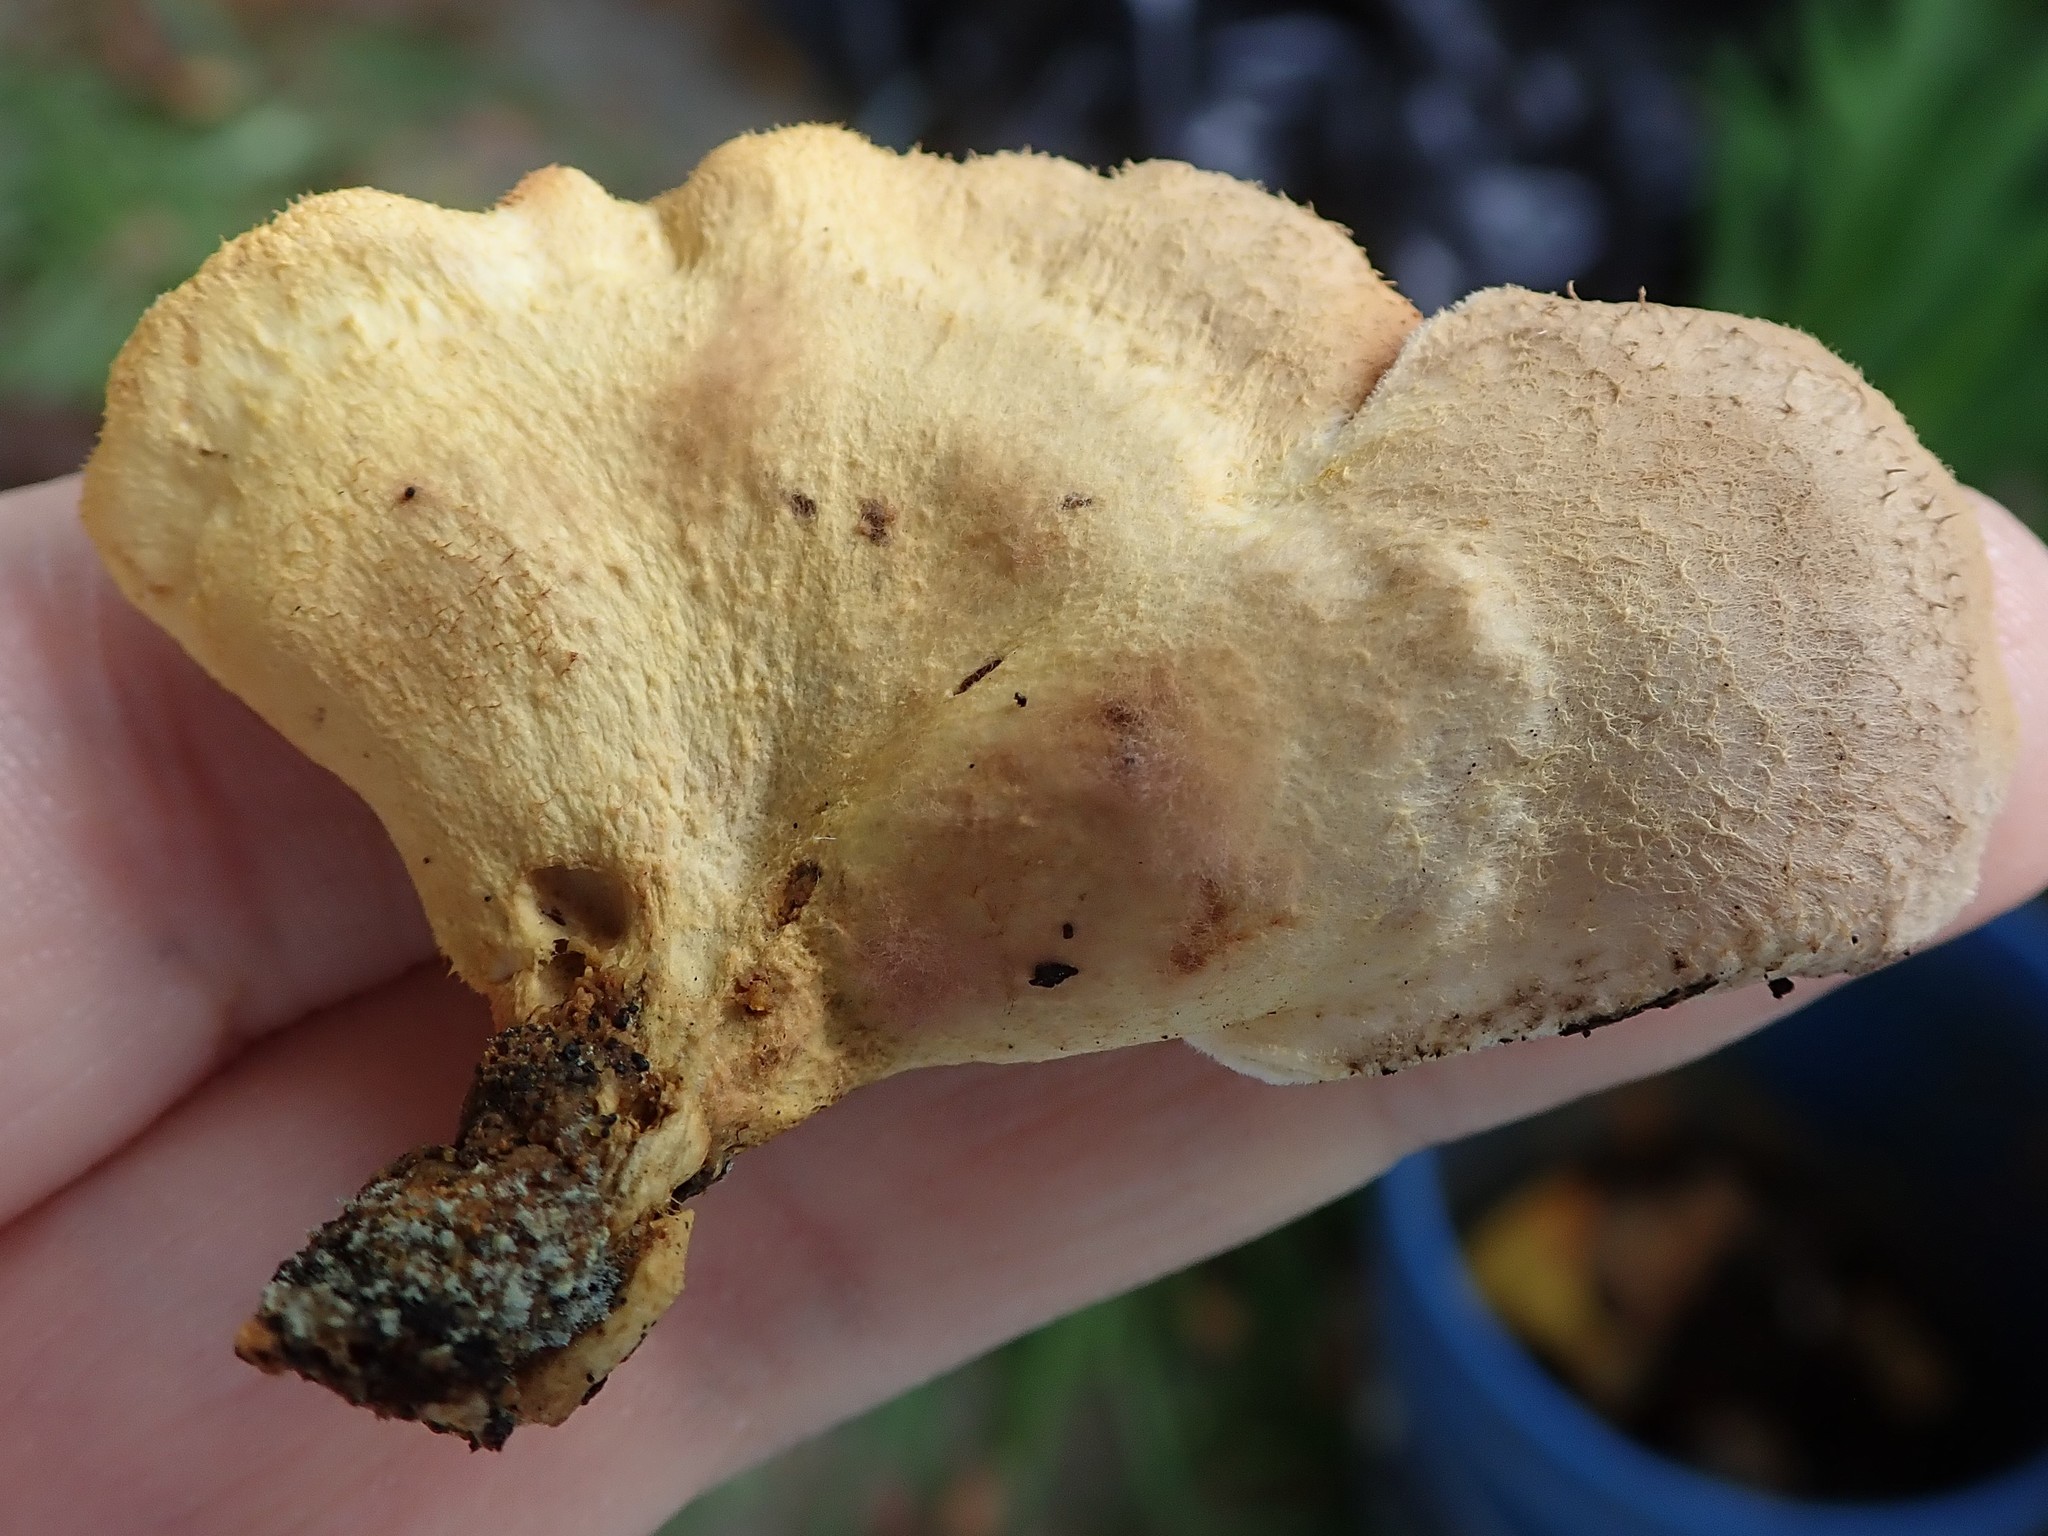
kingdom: Fungi
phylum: Basidiomycota
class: Agaricomycetes
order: Boletales
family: Tapinellaceae
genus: Tapinella
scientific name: Tapinella panuoides
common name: Oyster rollrim
